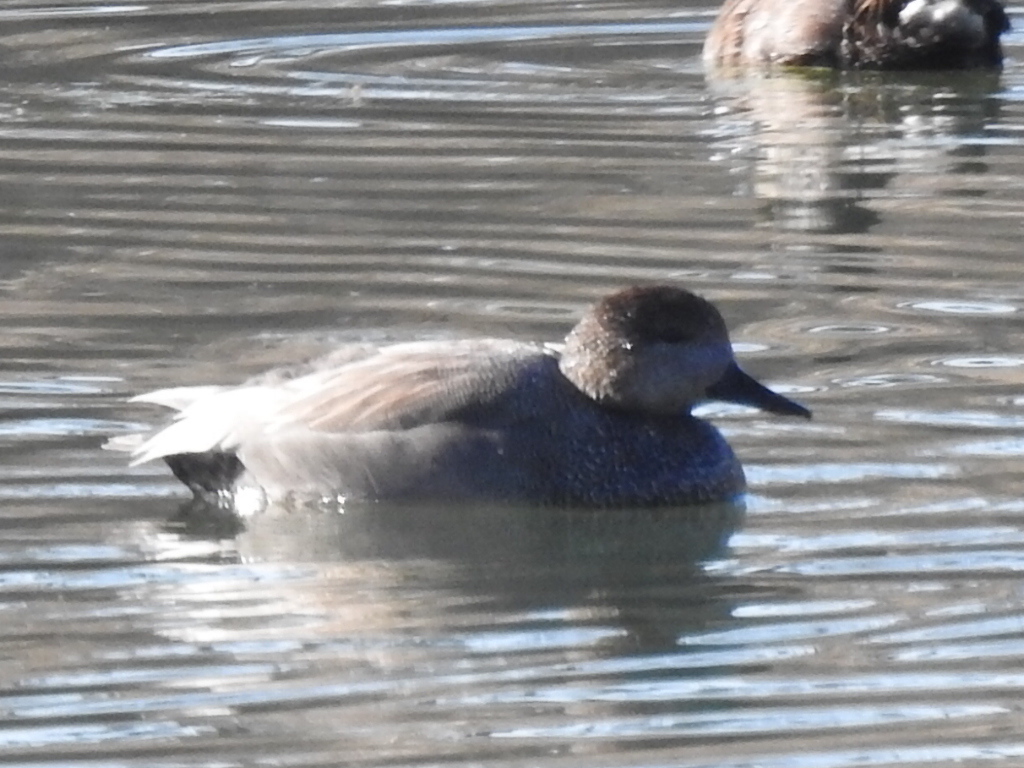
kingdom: Animalia
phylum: Chordata
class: Aves
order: Anseriformes
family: Anatidae
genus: Mareca
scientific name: Mareca strepera
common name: Gadwall
